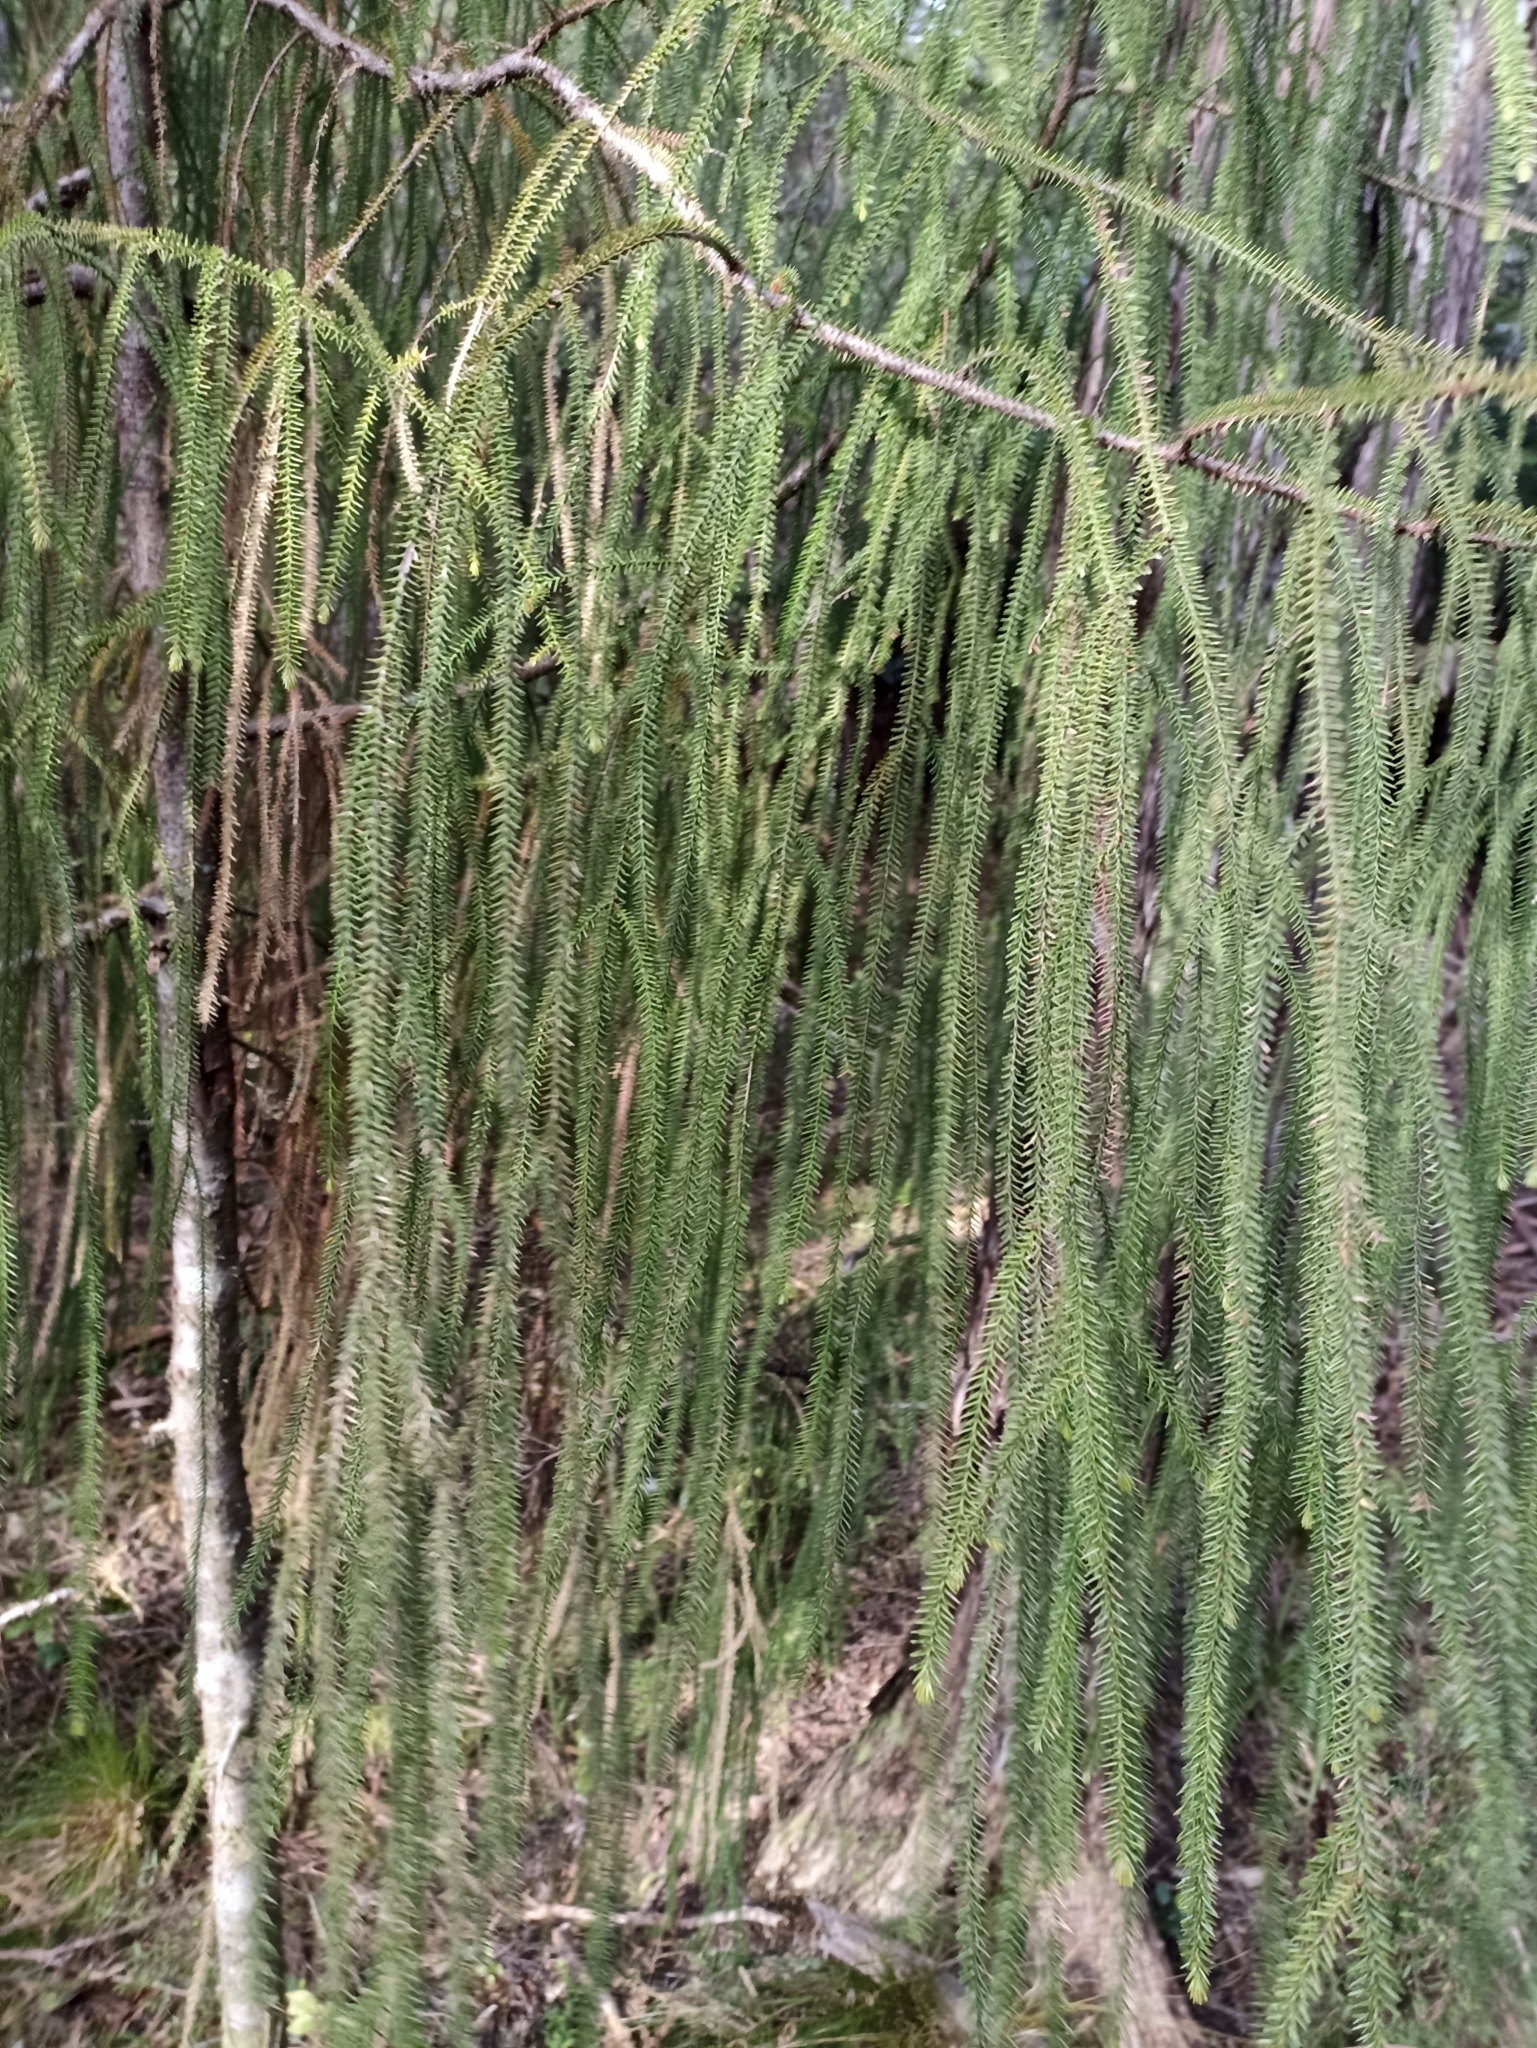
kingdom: Plantae
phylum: Tracheophyta
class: Pinopsida
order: Pinales
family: Podocarpaceae
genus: Dacrydium
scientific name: Dacrydium cupressinum
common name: Red pine
